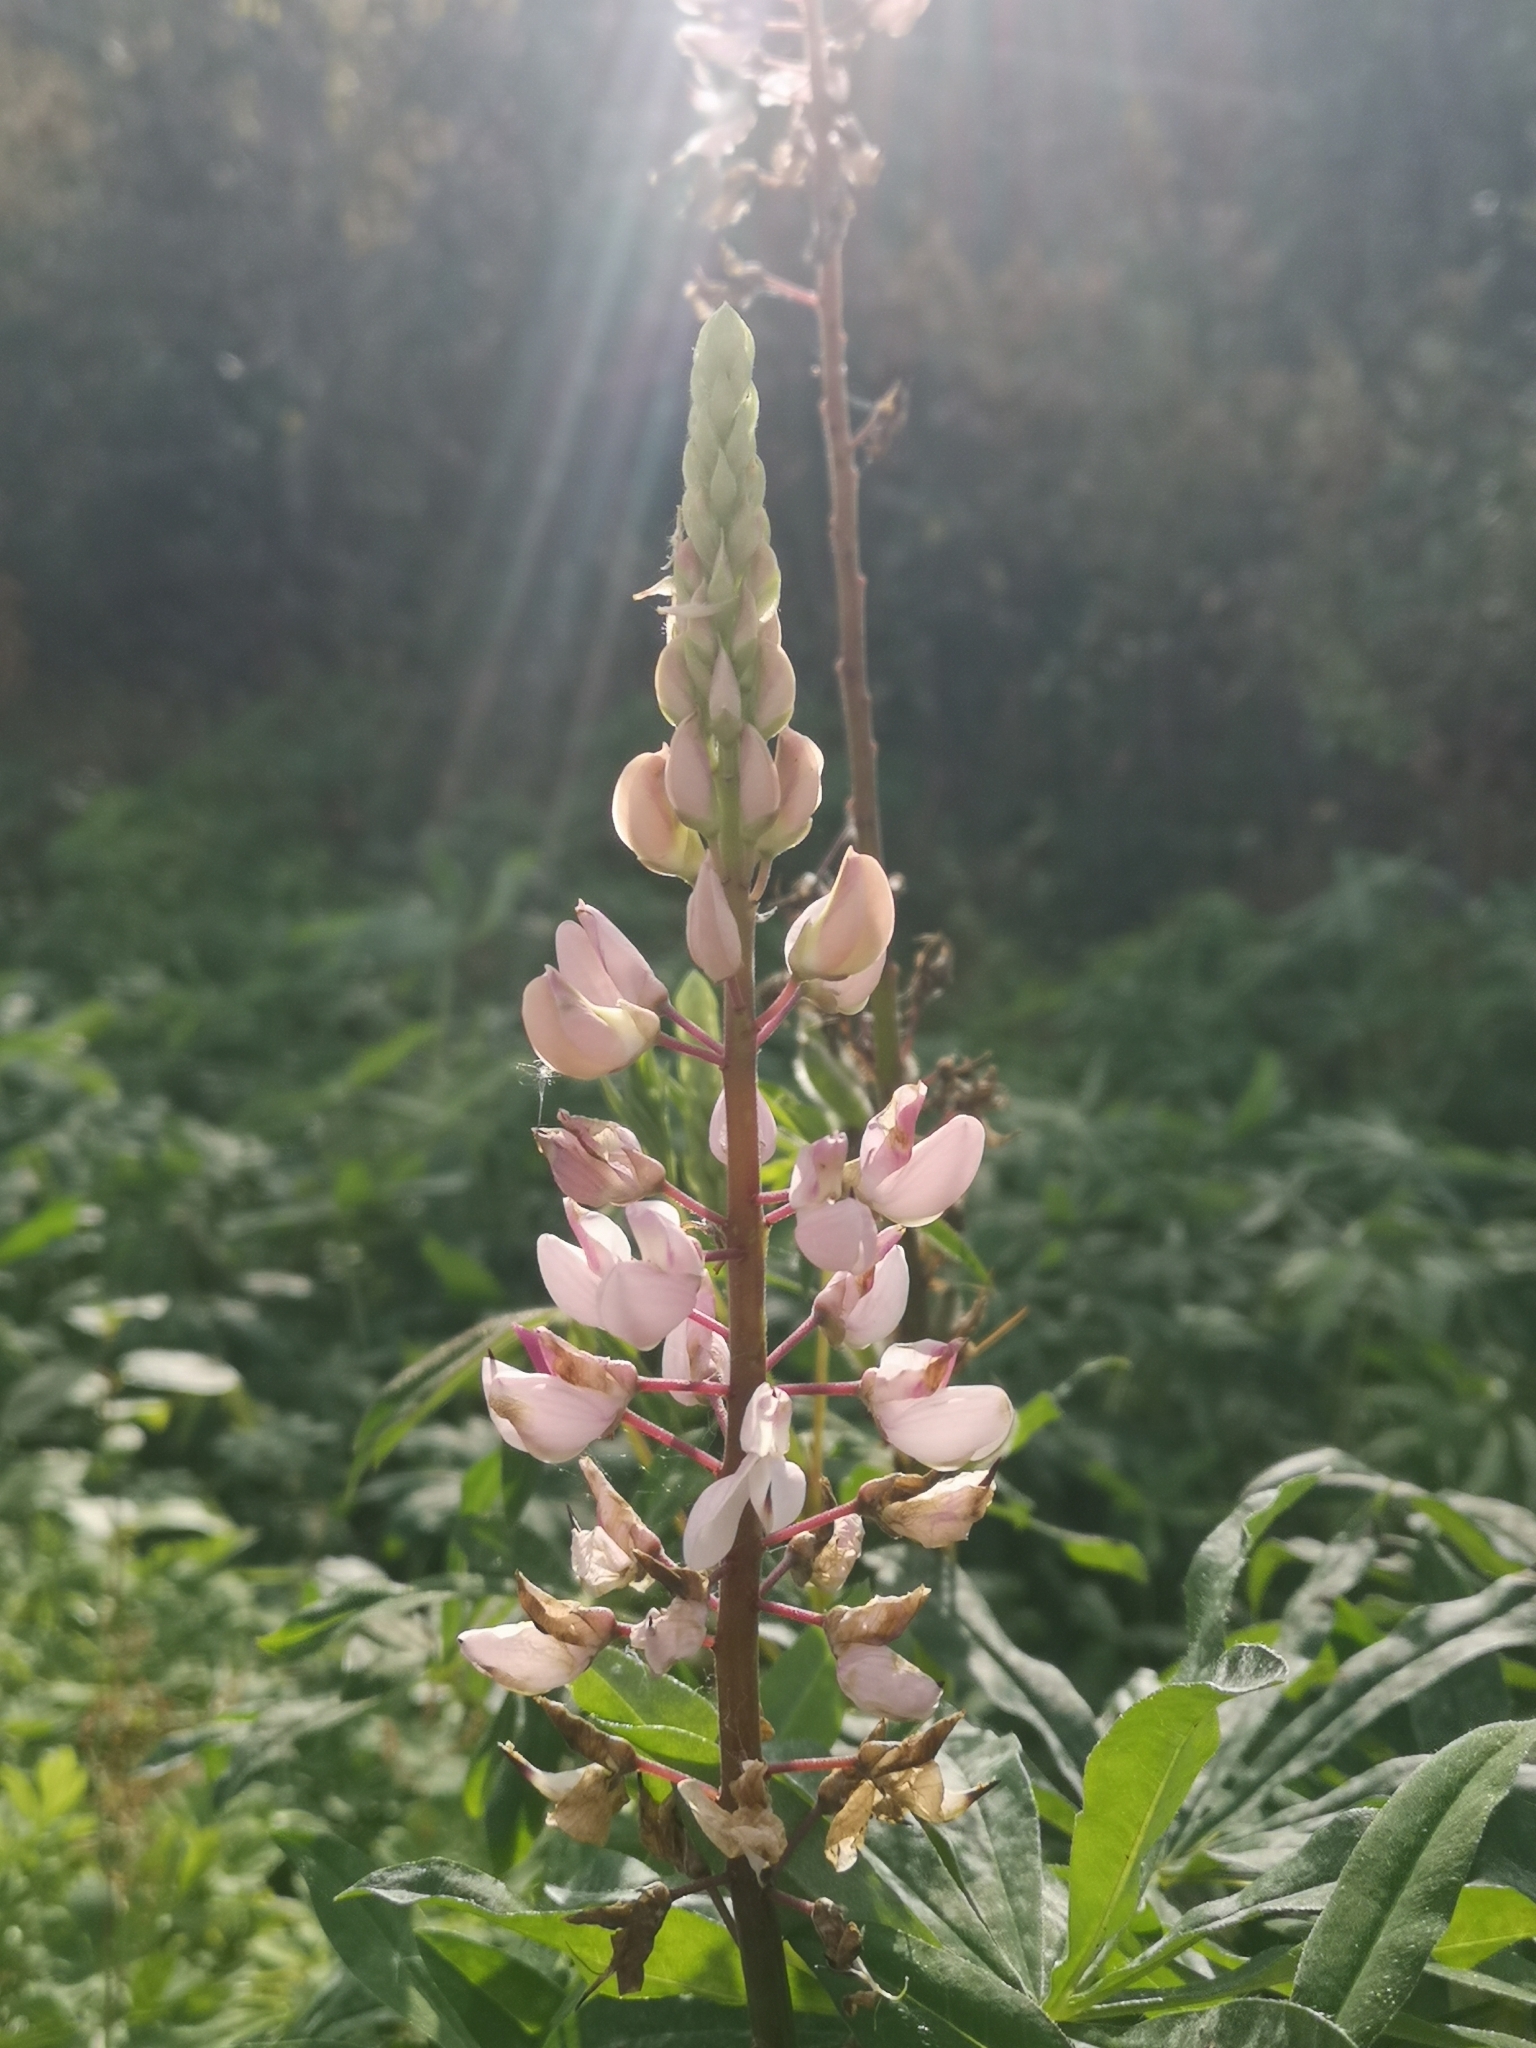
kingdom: Plantae
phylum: Tracheophyta
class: Magnoliopsida
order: Fabales
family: Fabaceae
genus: Lupinus
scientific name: Lupinus polyphyllus
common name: Garden lupin
